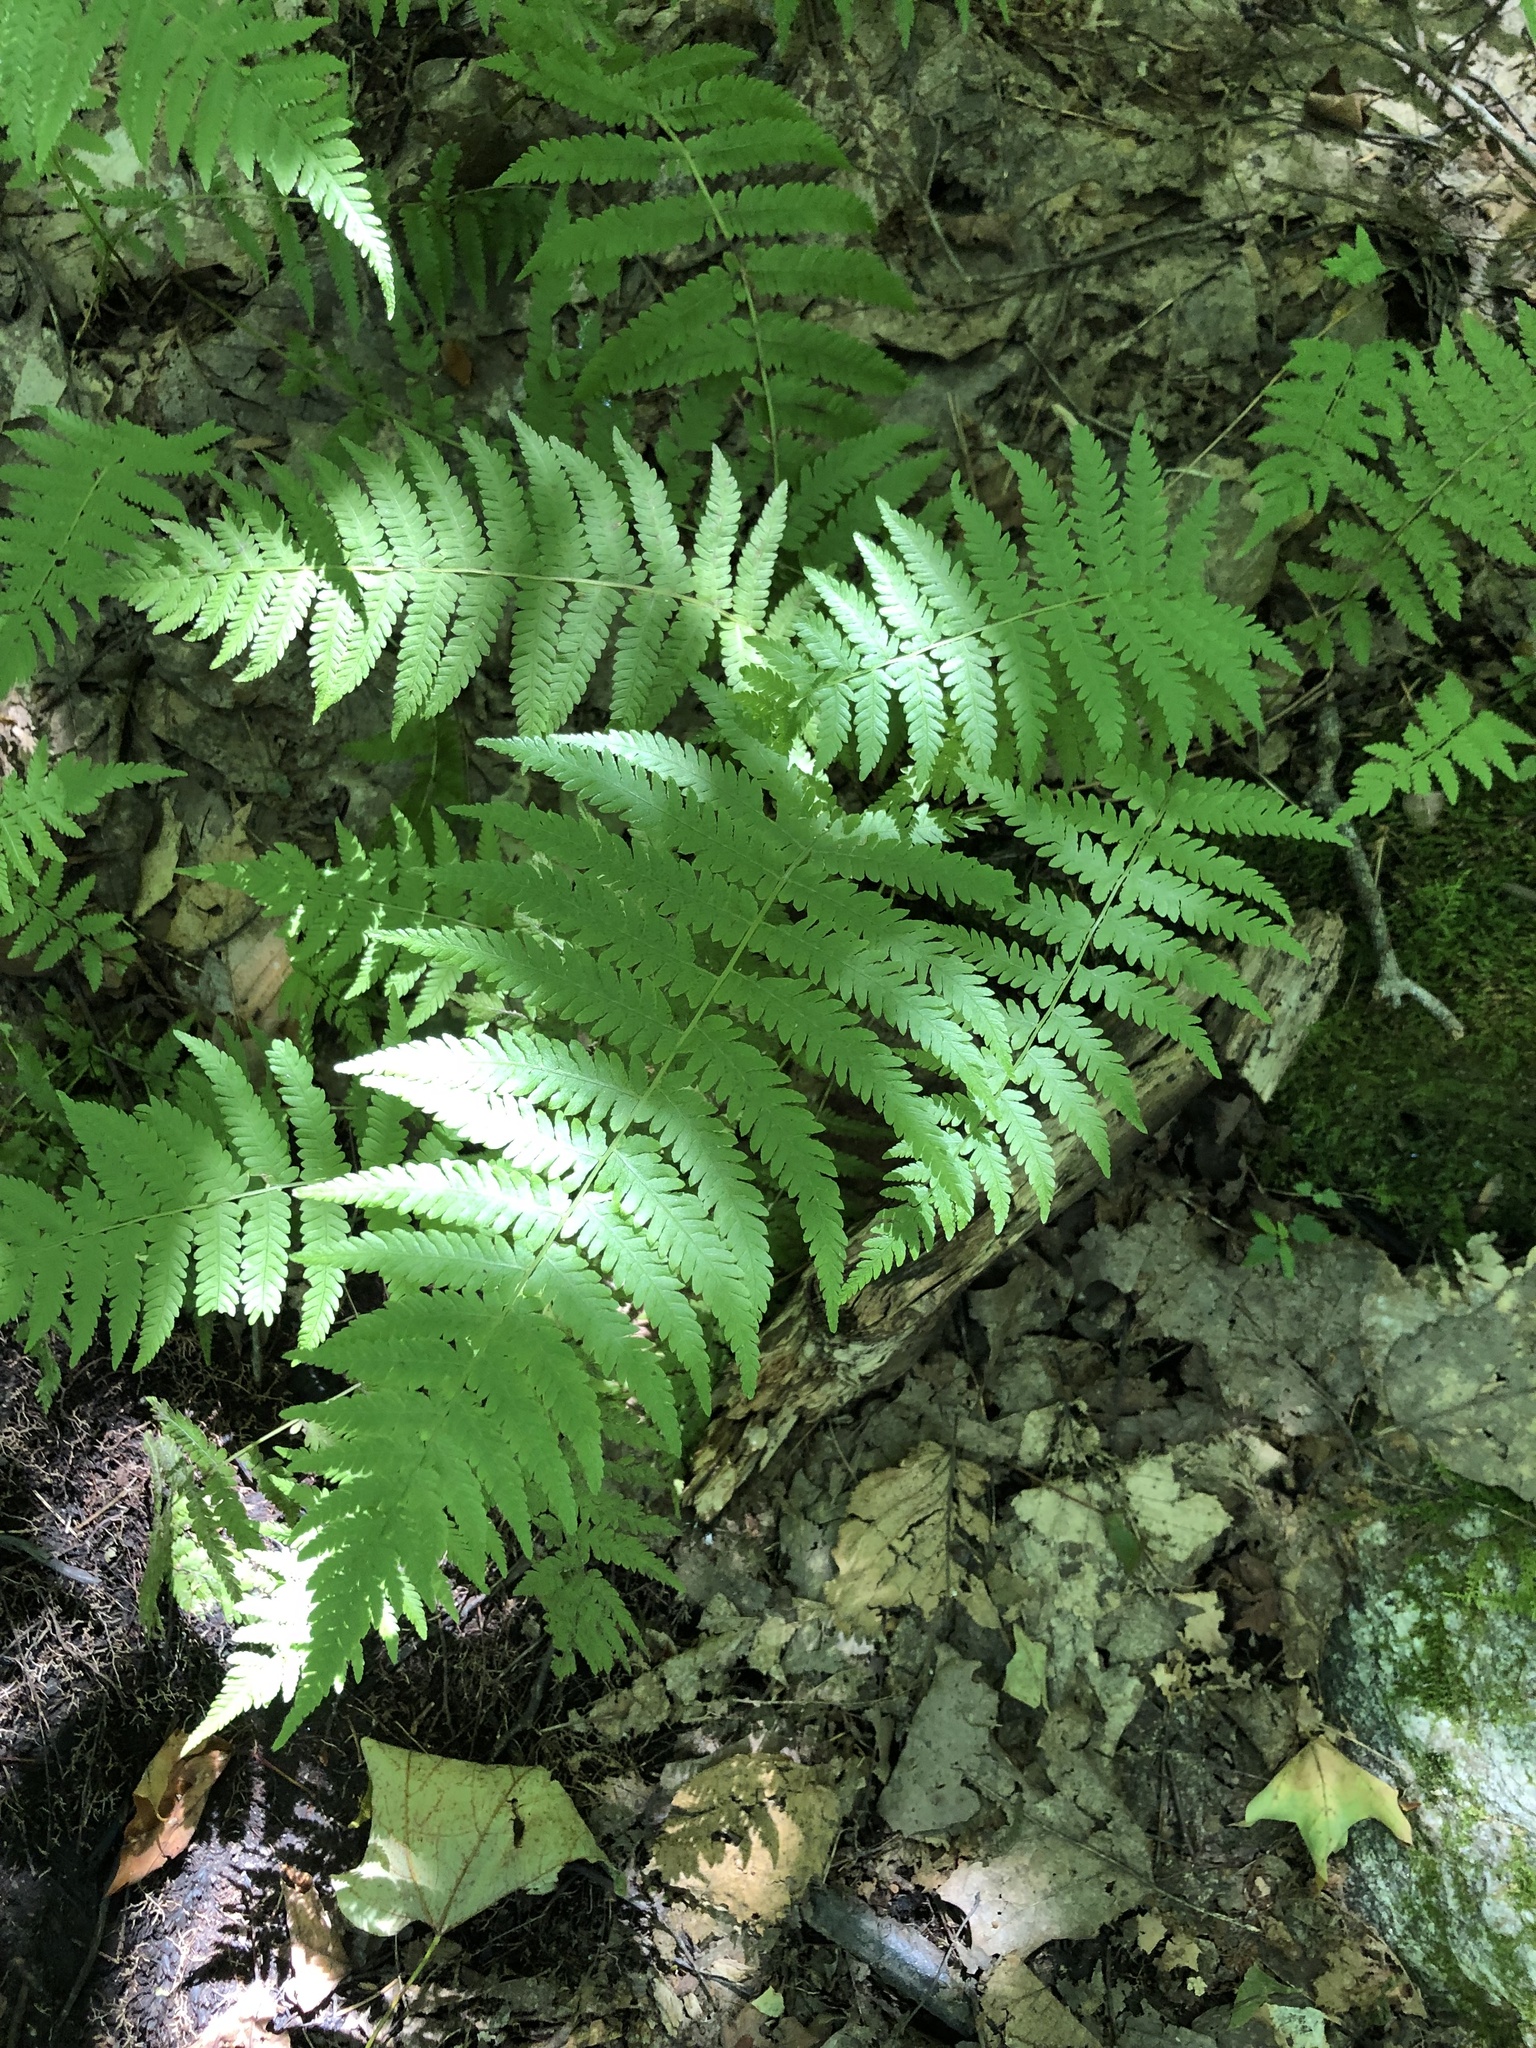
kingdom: Plantae
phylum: Tracheophyta
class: Polypodiopsida
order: Polypodiales
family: Thelypteridaceae
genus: Amauropelta
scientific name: Amauropelta noveboracensis
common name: New york fern
